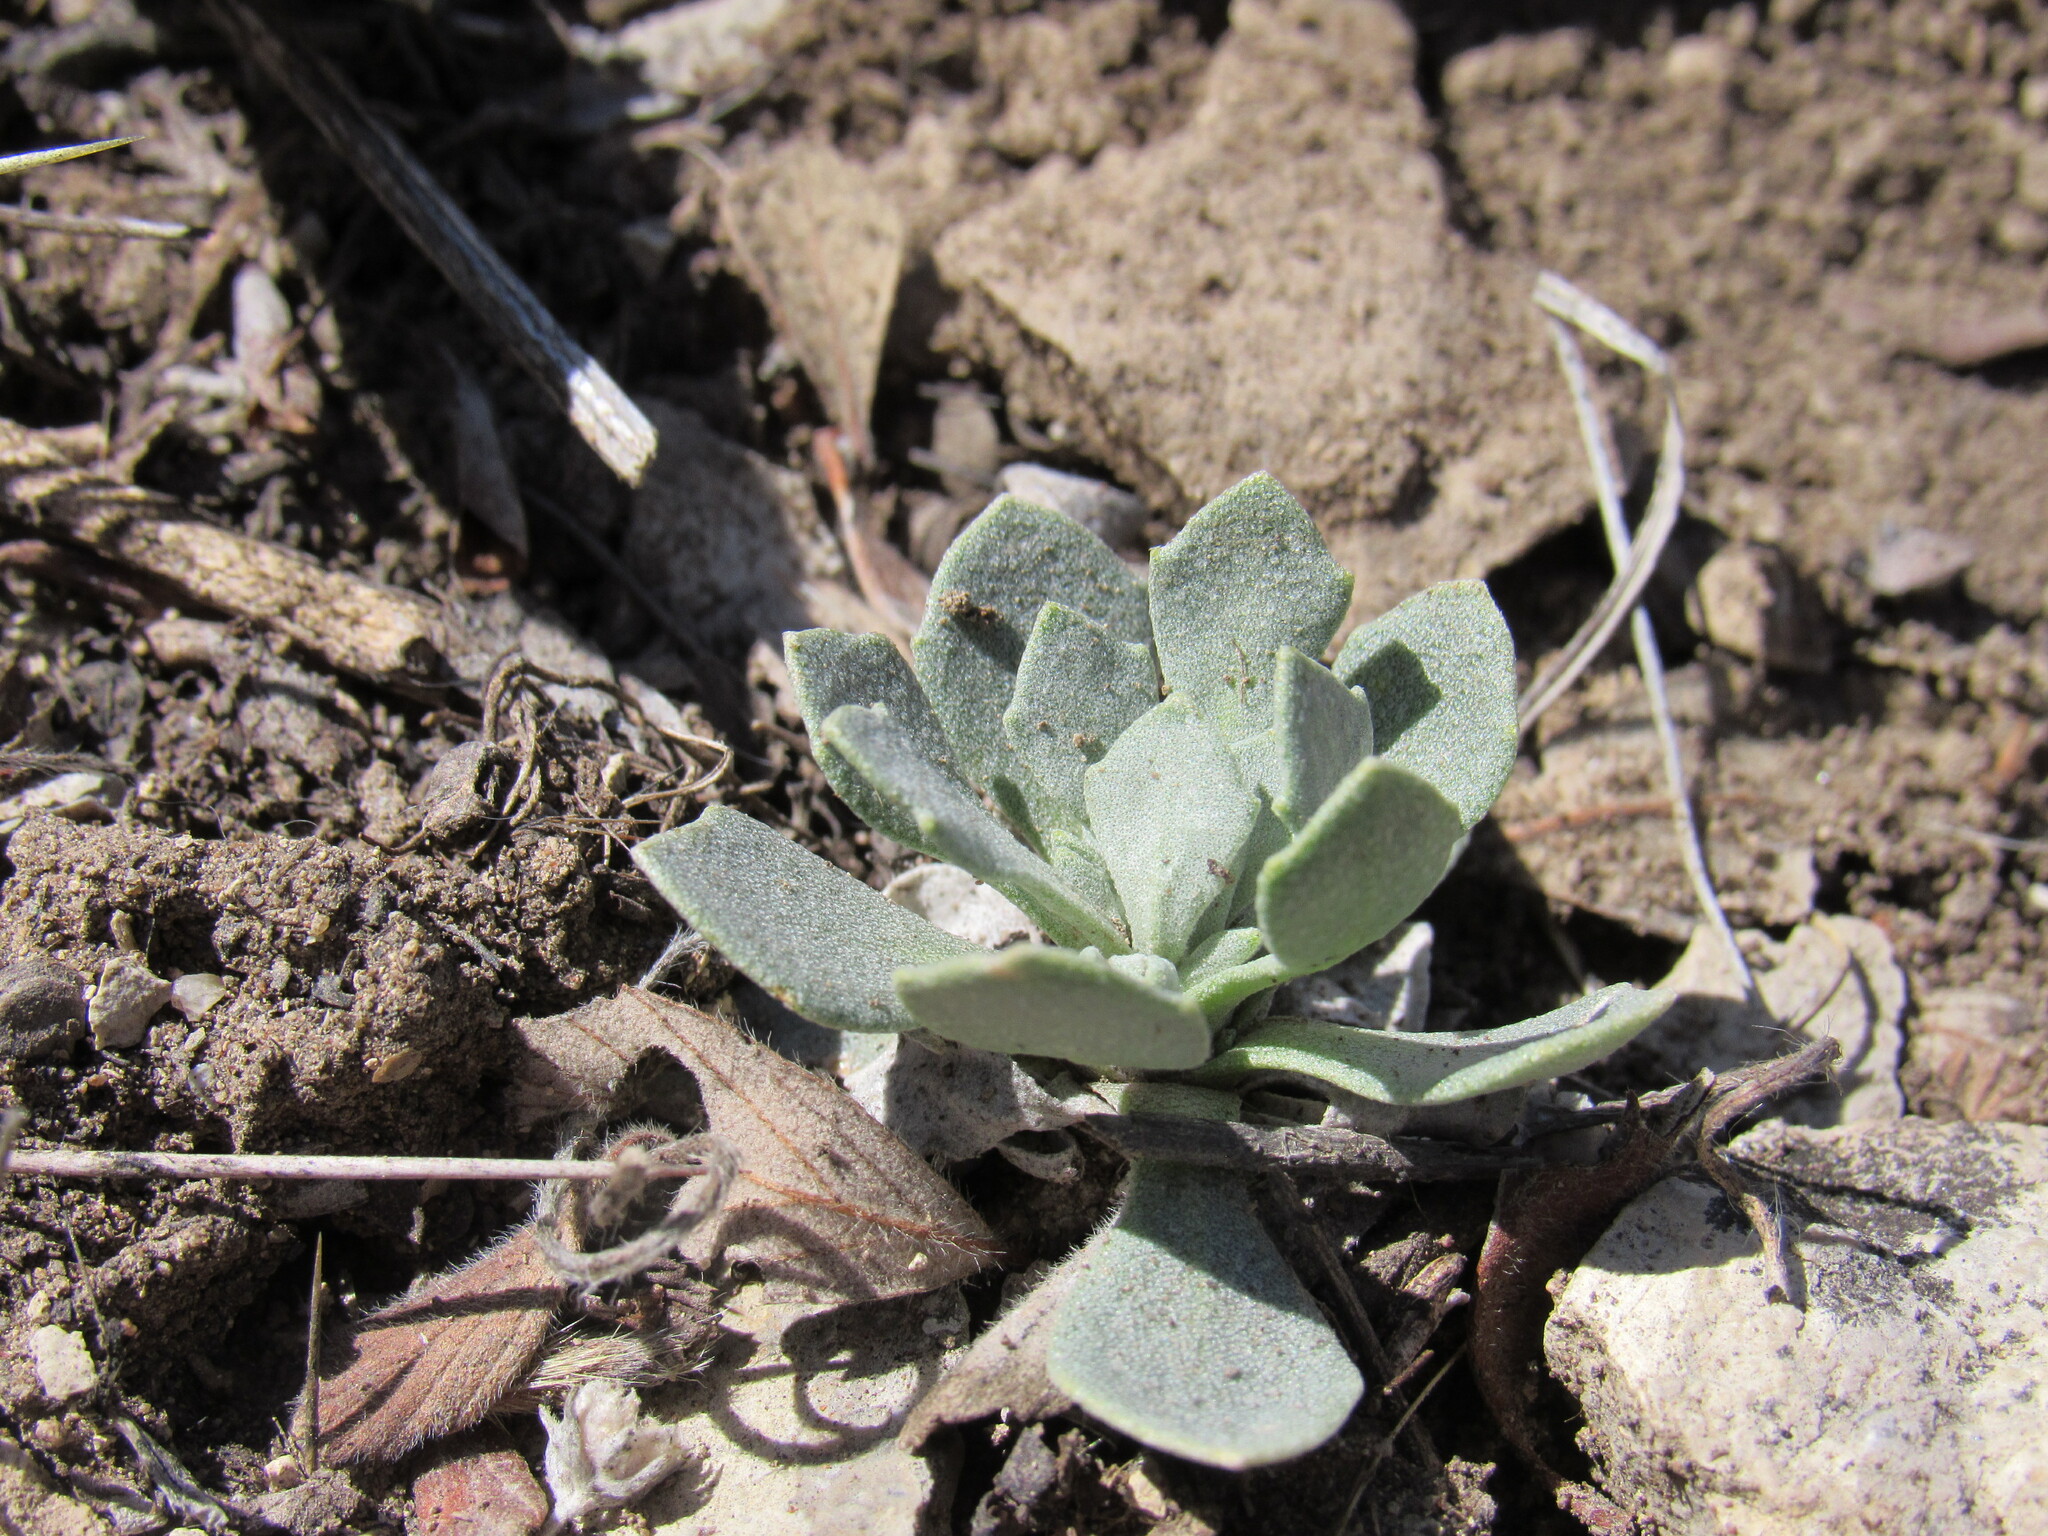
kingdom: Plantae
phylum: Tracheophyta
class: Magnoliopsida
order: Brassicales
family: Brassicaceae
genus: Physaria
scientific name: Physaria bellii
